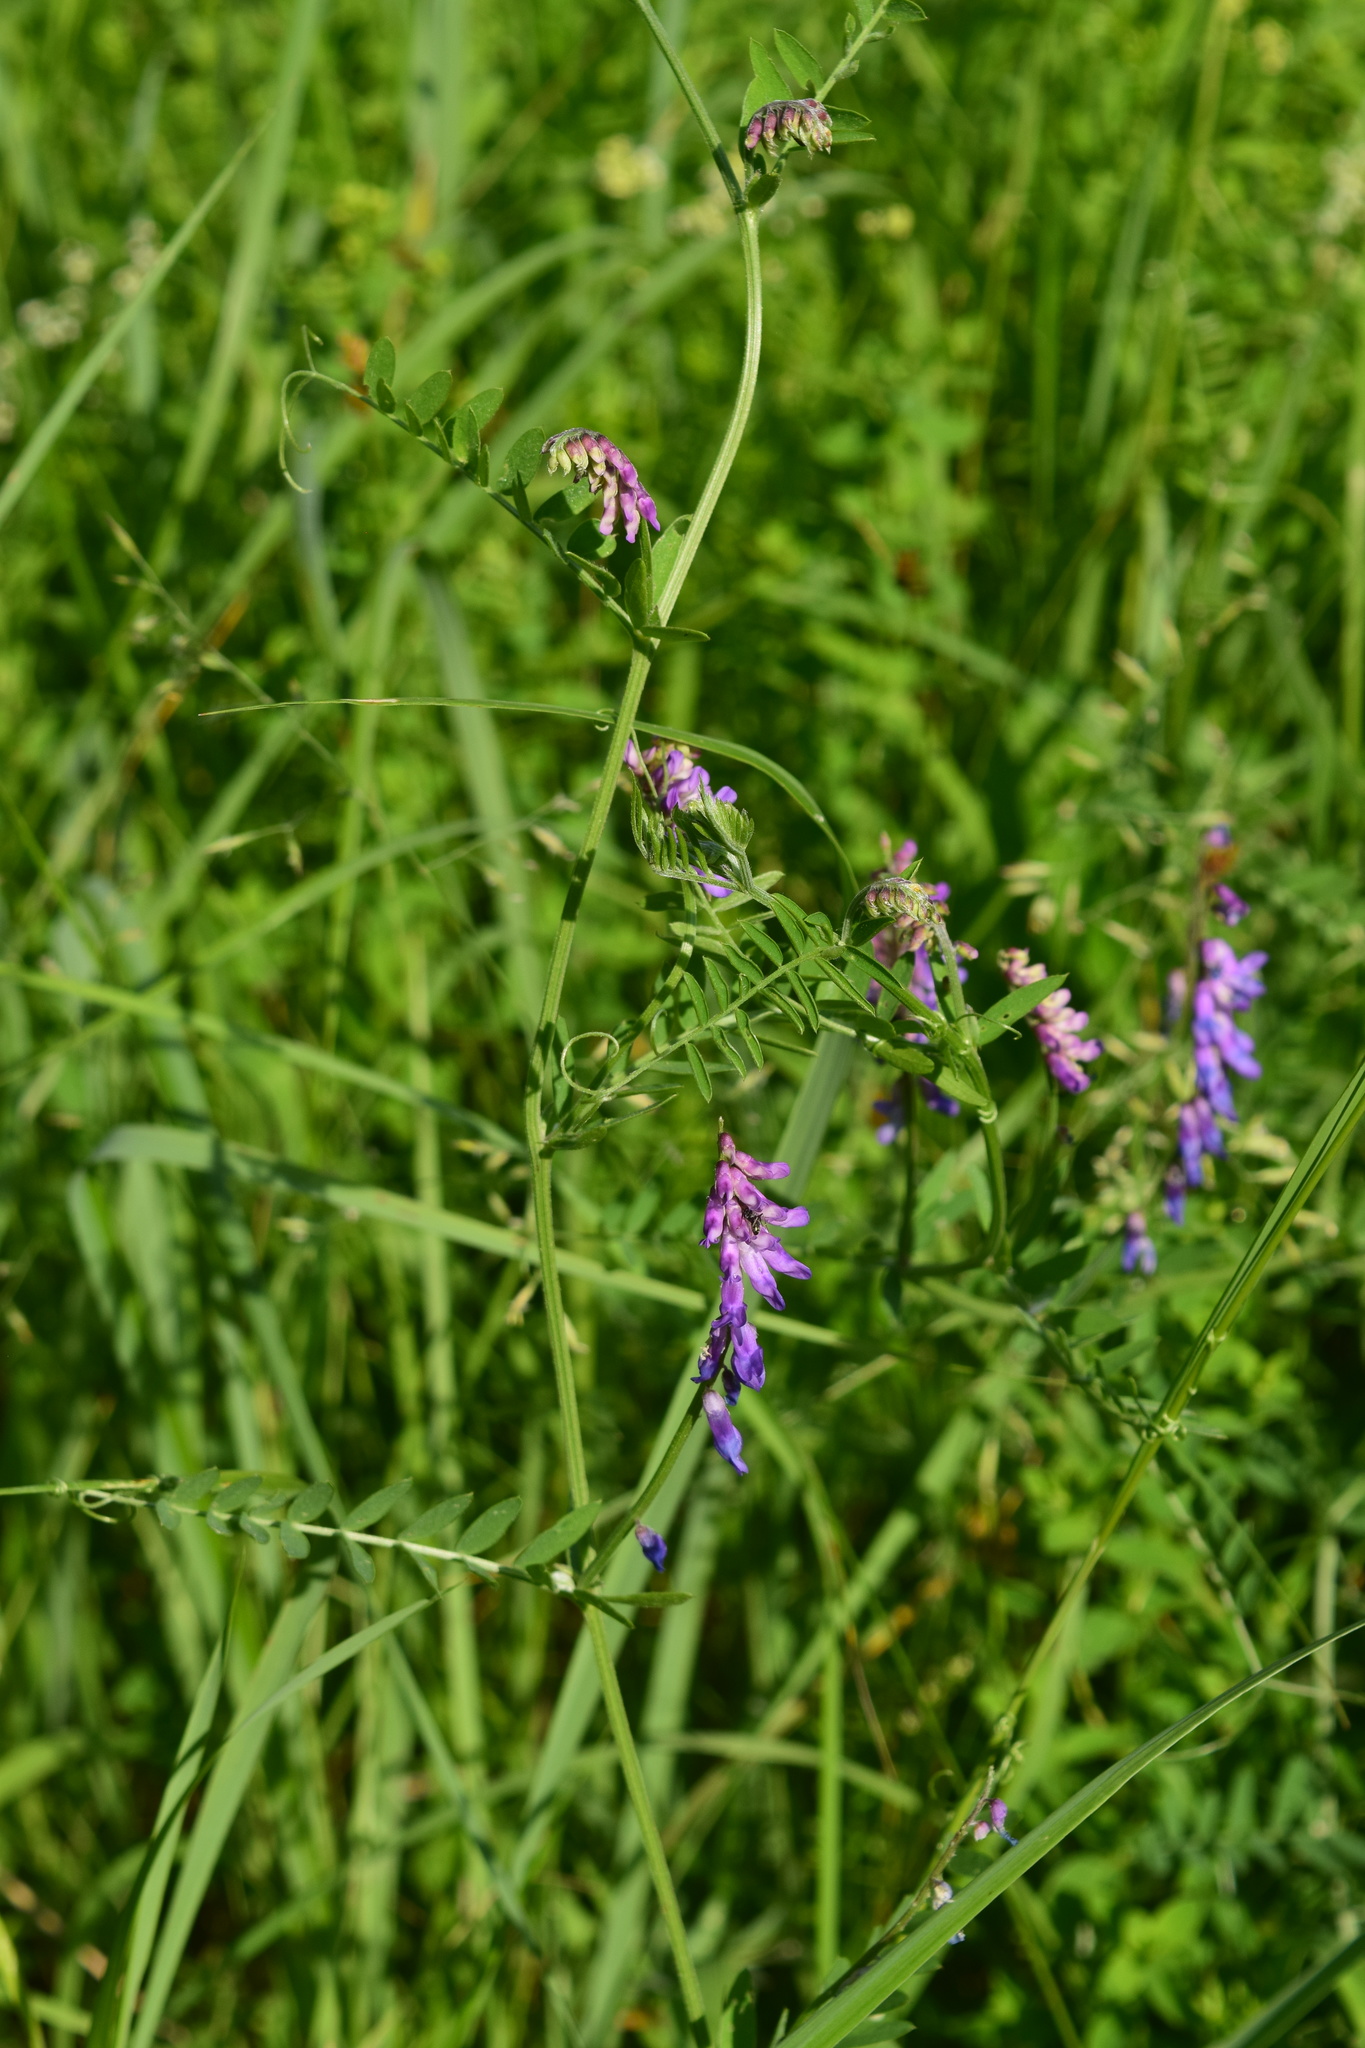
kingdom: Plantae
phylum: Tracheophyta
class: Magnoliopsida
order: Fabales
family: Fabaceae
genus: Vicia
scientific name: Vicia cracca
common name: Bird vetch
